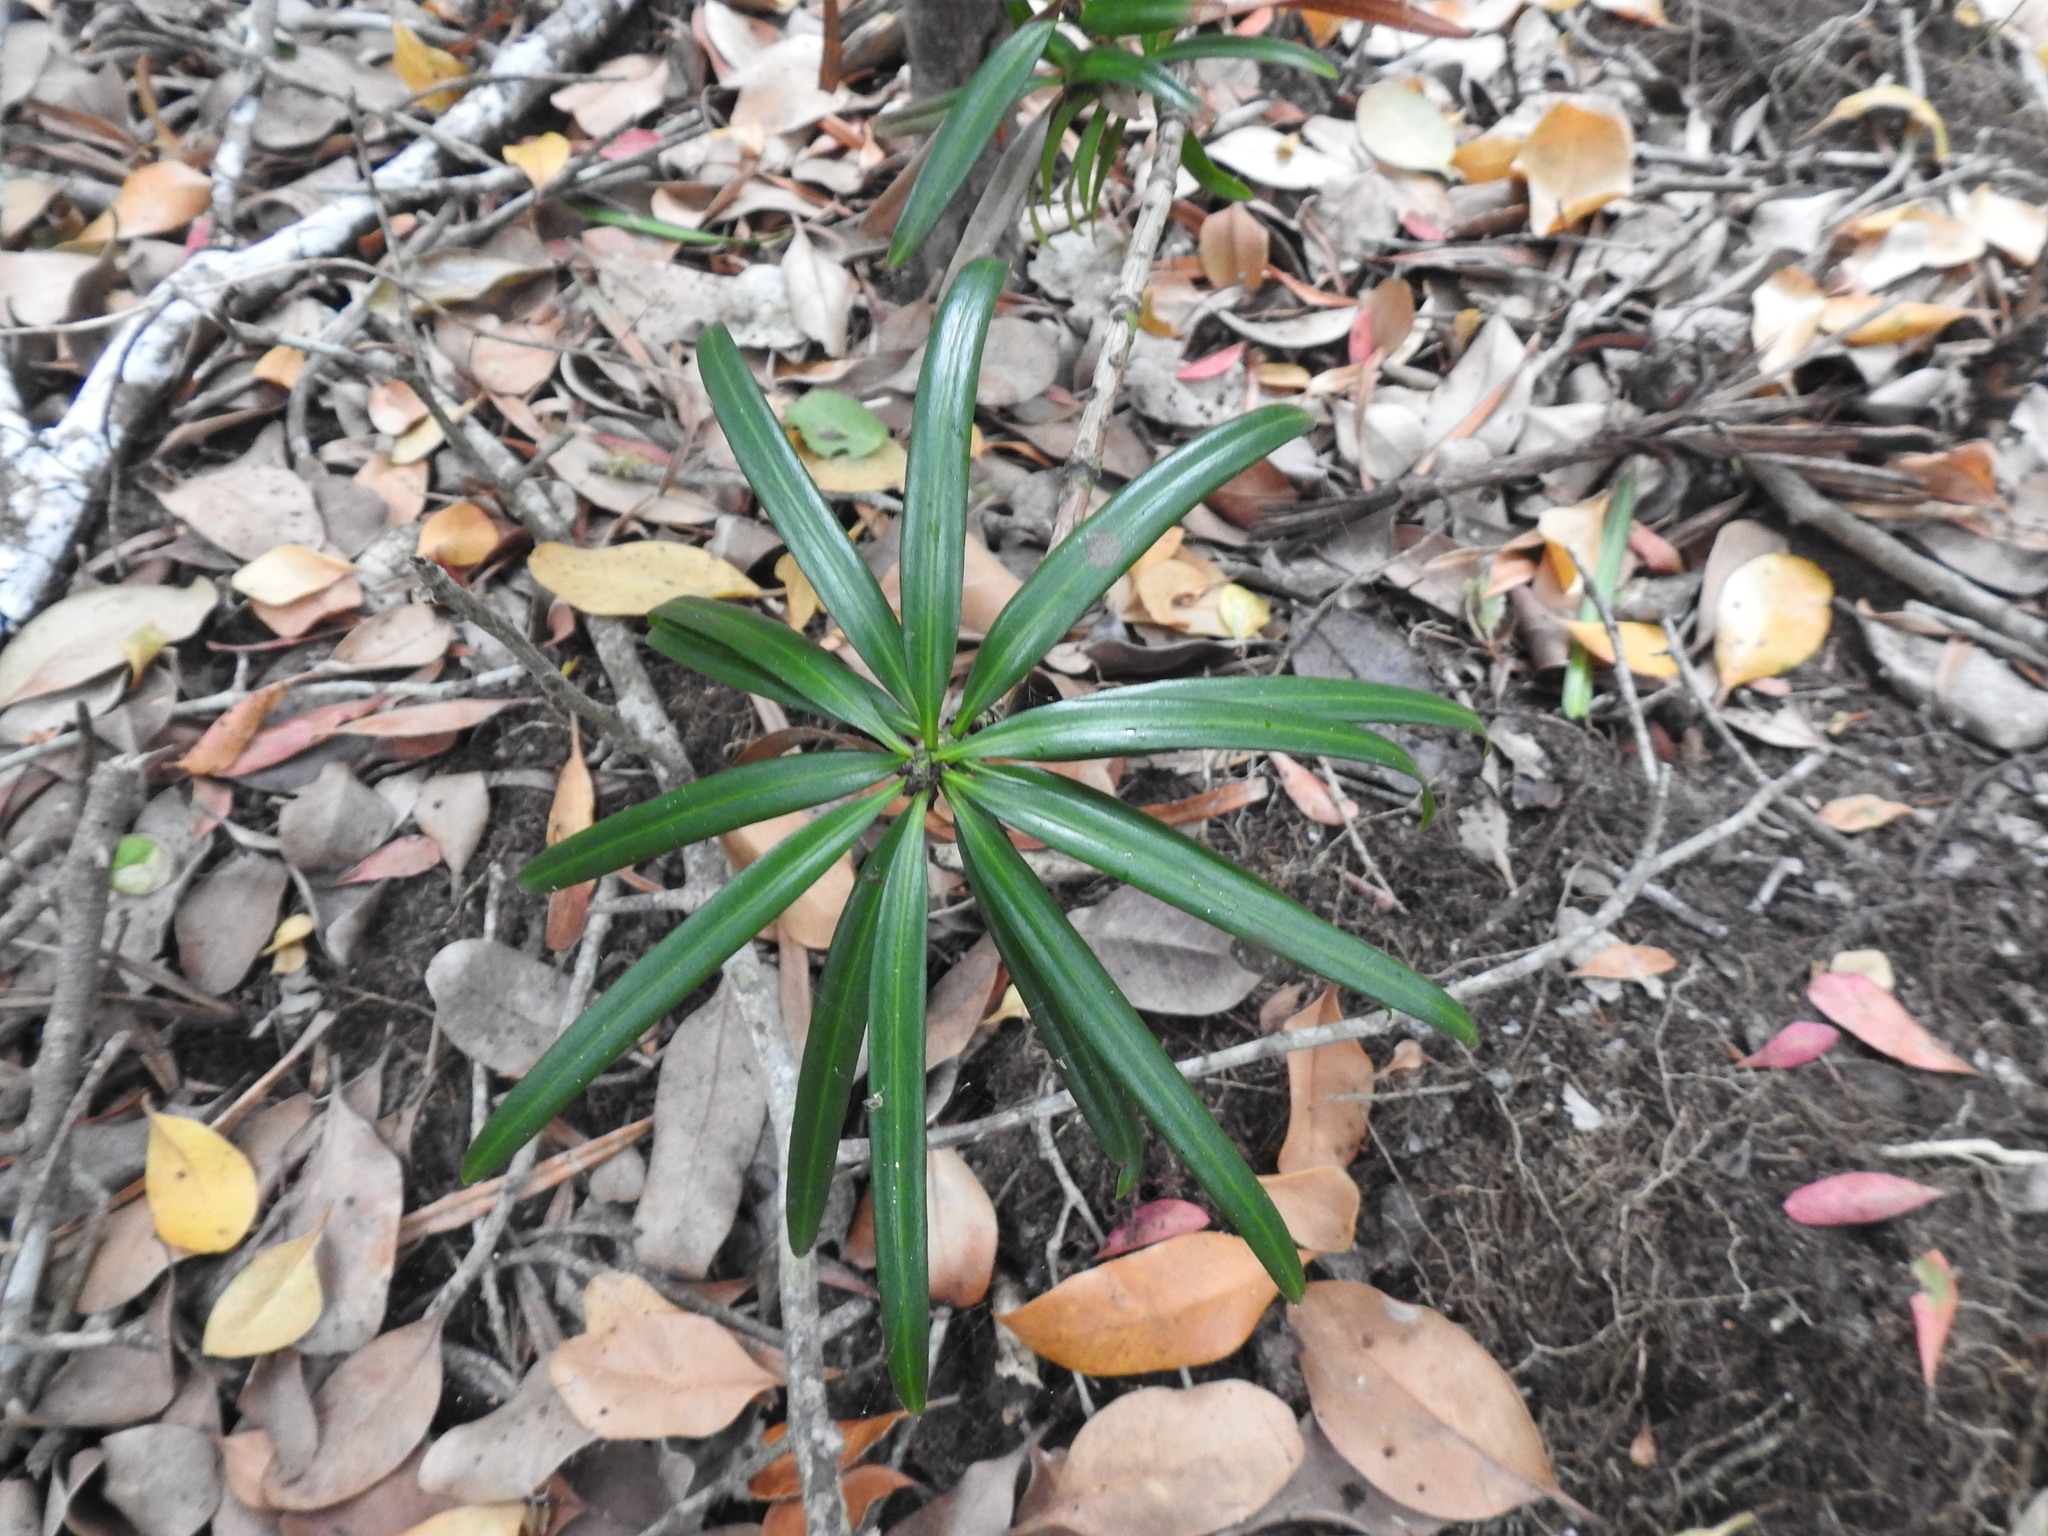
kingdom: Plantae
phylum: Tracheophyta
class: Pinopsida
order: Pinales
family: Podocarpaceae
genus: Podocarpus
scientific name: Podocarpus latifolius
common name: True yellowwood
